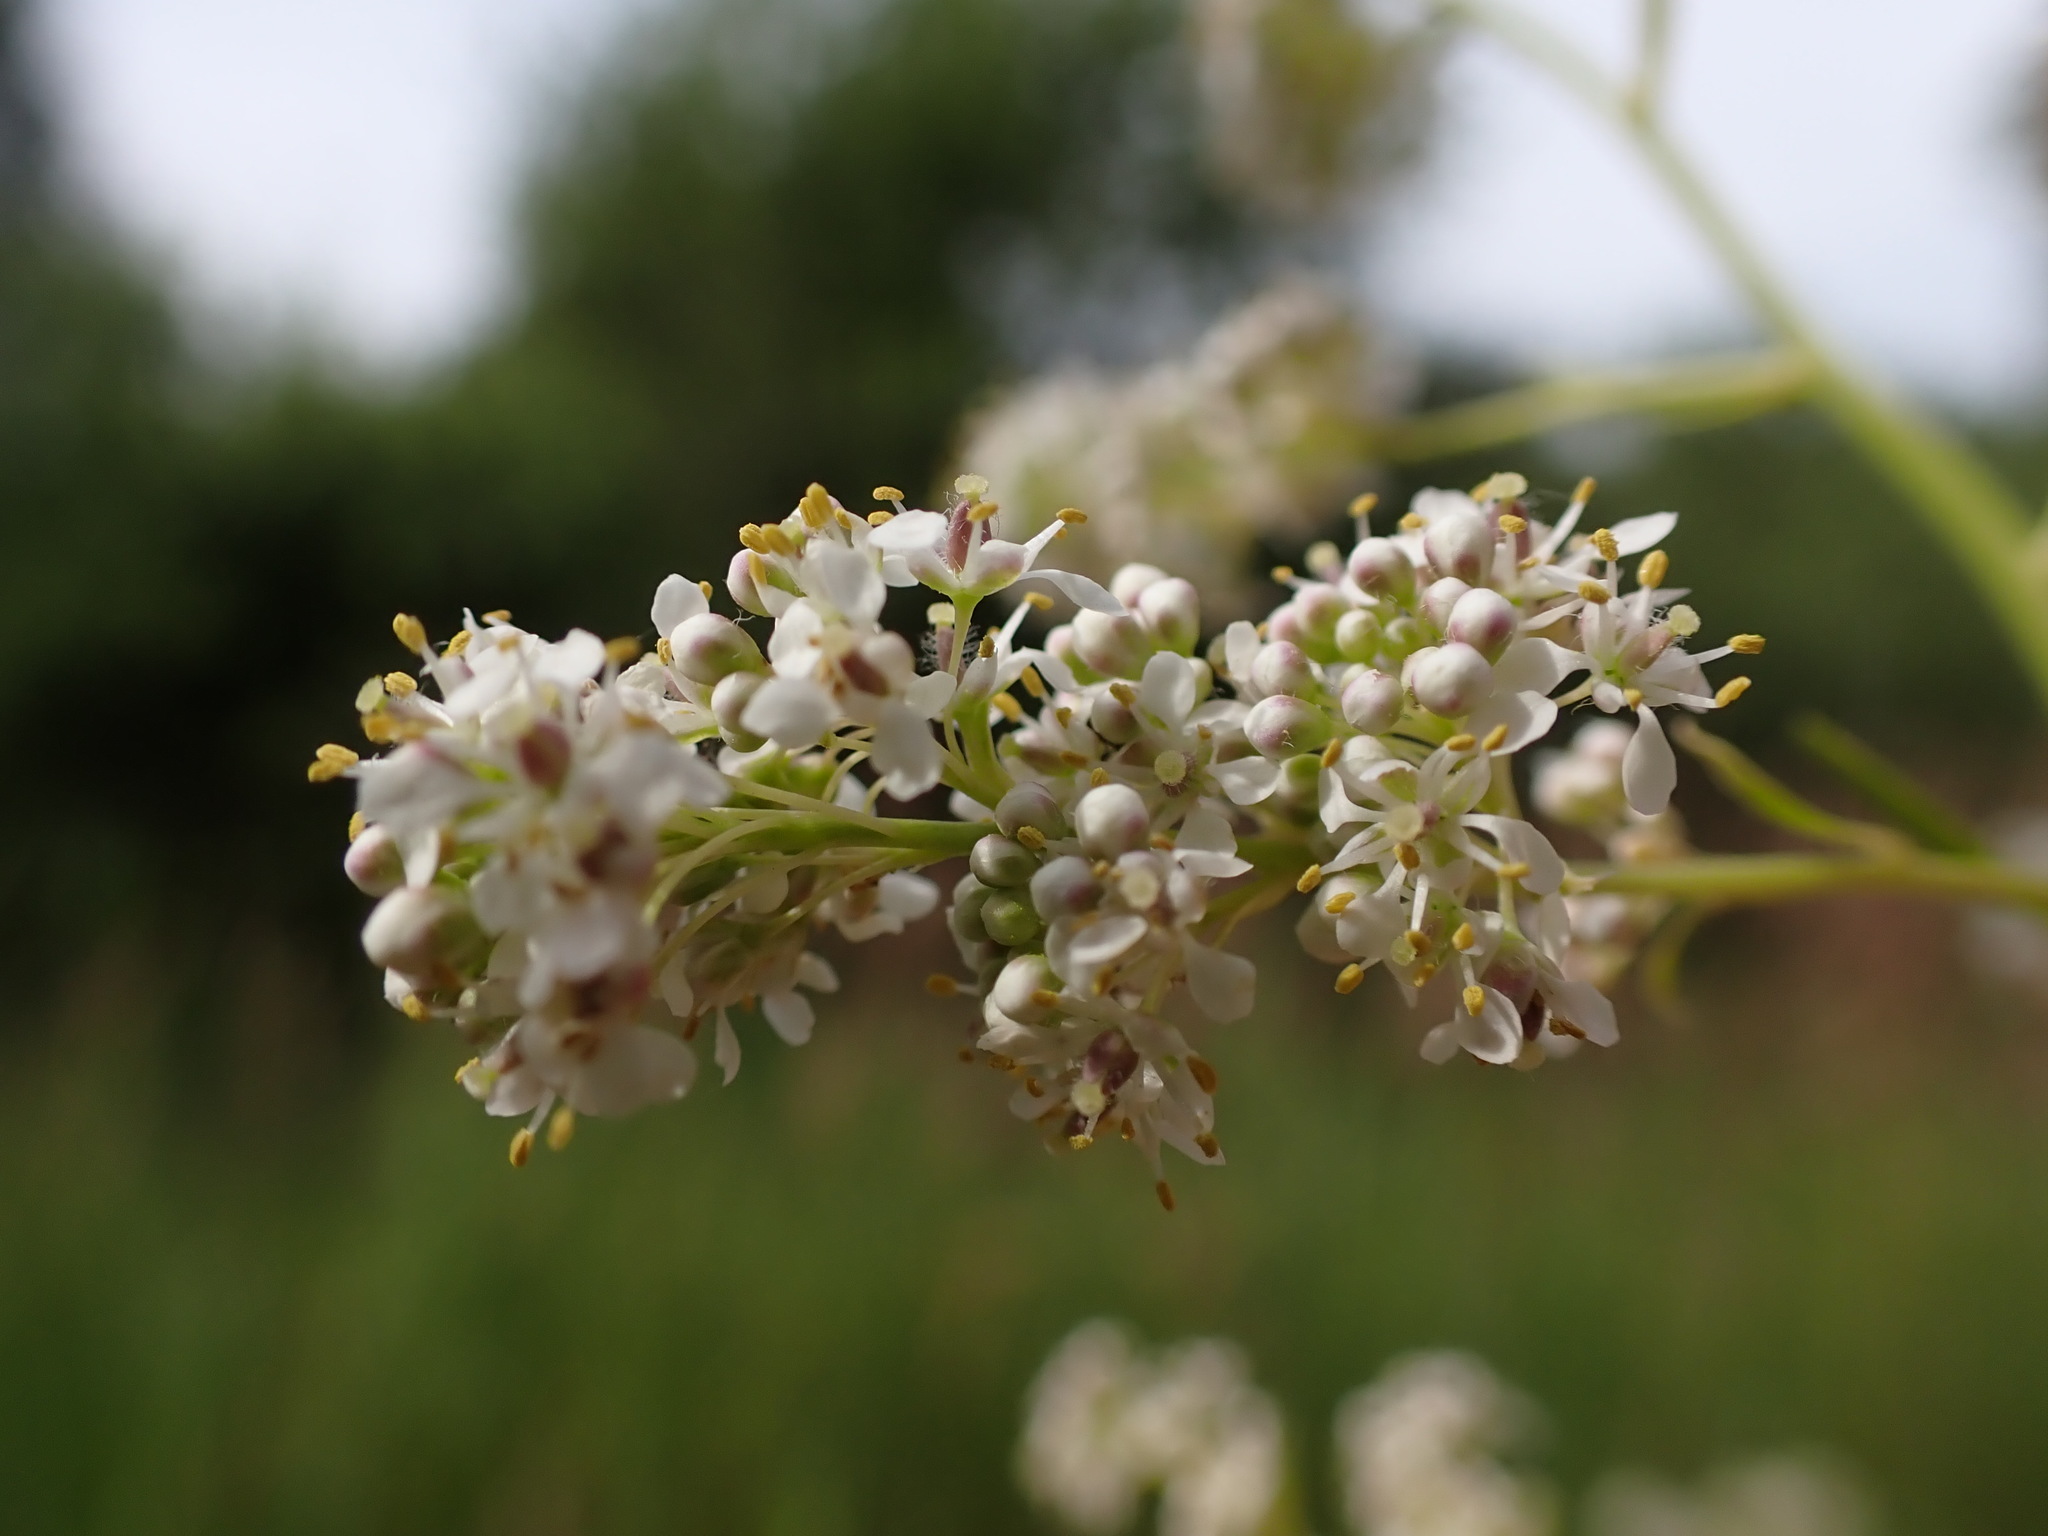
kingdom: Plantae
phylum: Tracheophyta
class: Magnoliopsida
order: Brassicales
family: Brassicaceae
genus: Lepidium
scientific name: Lepidium latifolium
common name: Dittander
